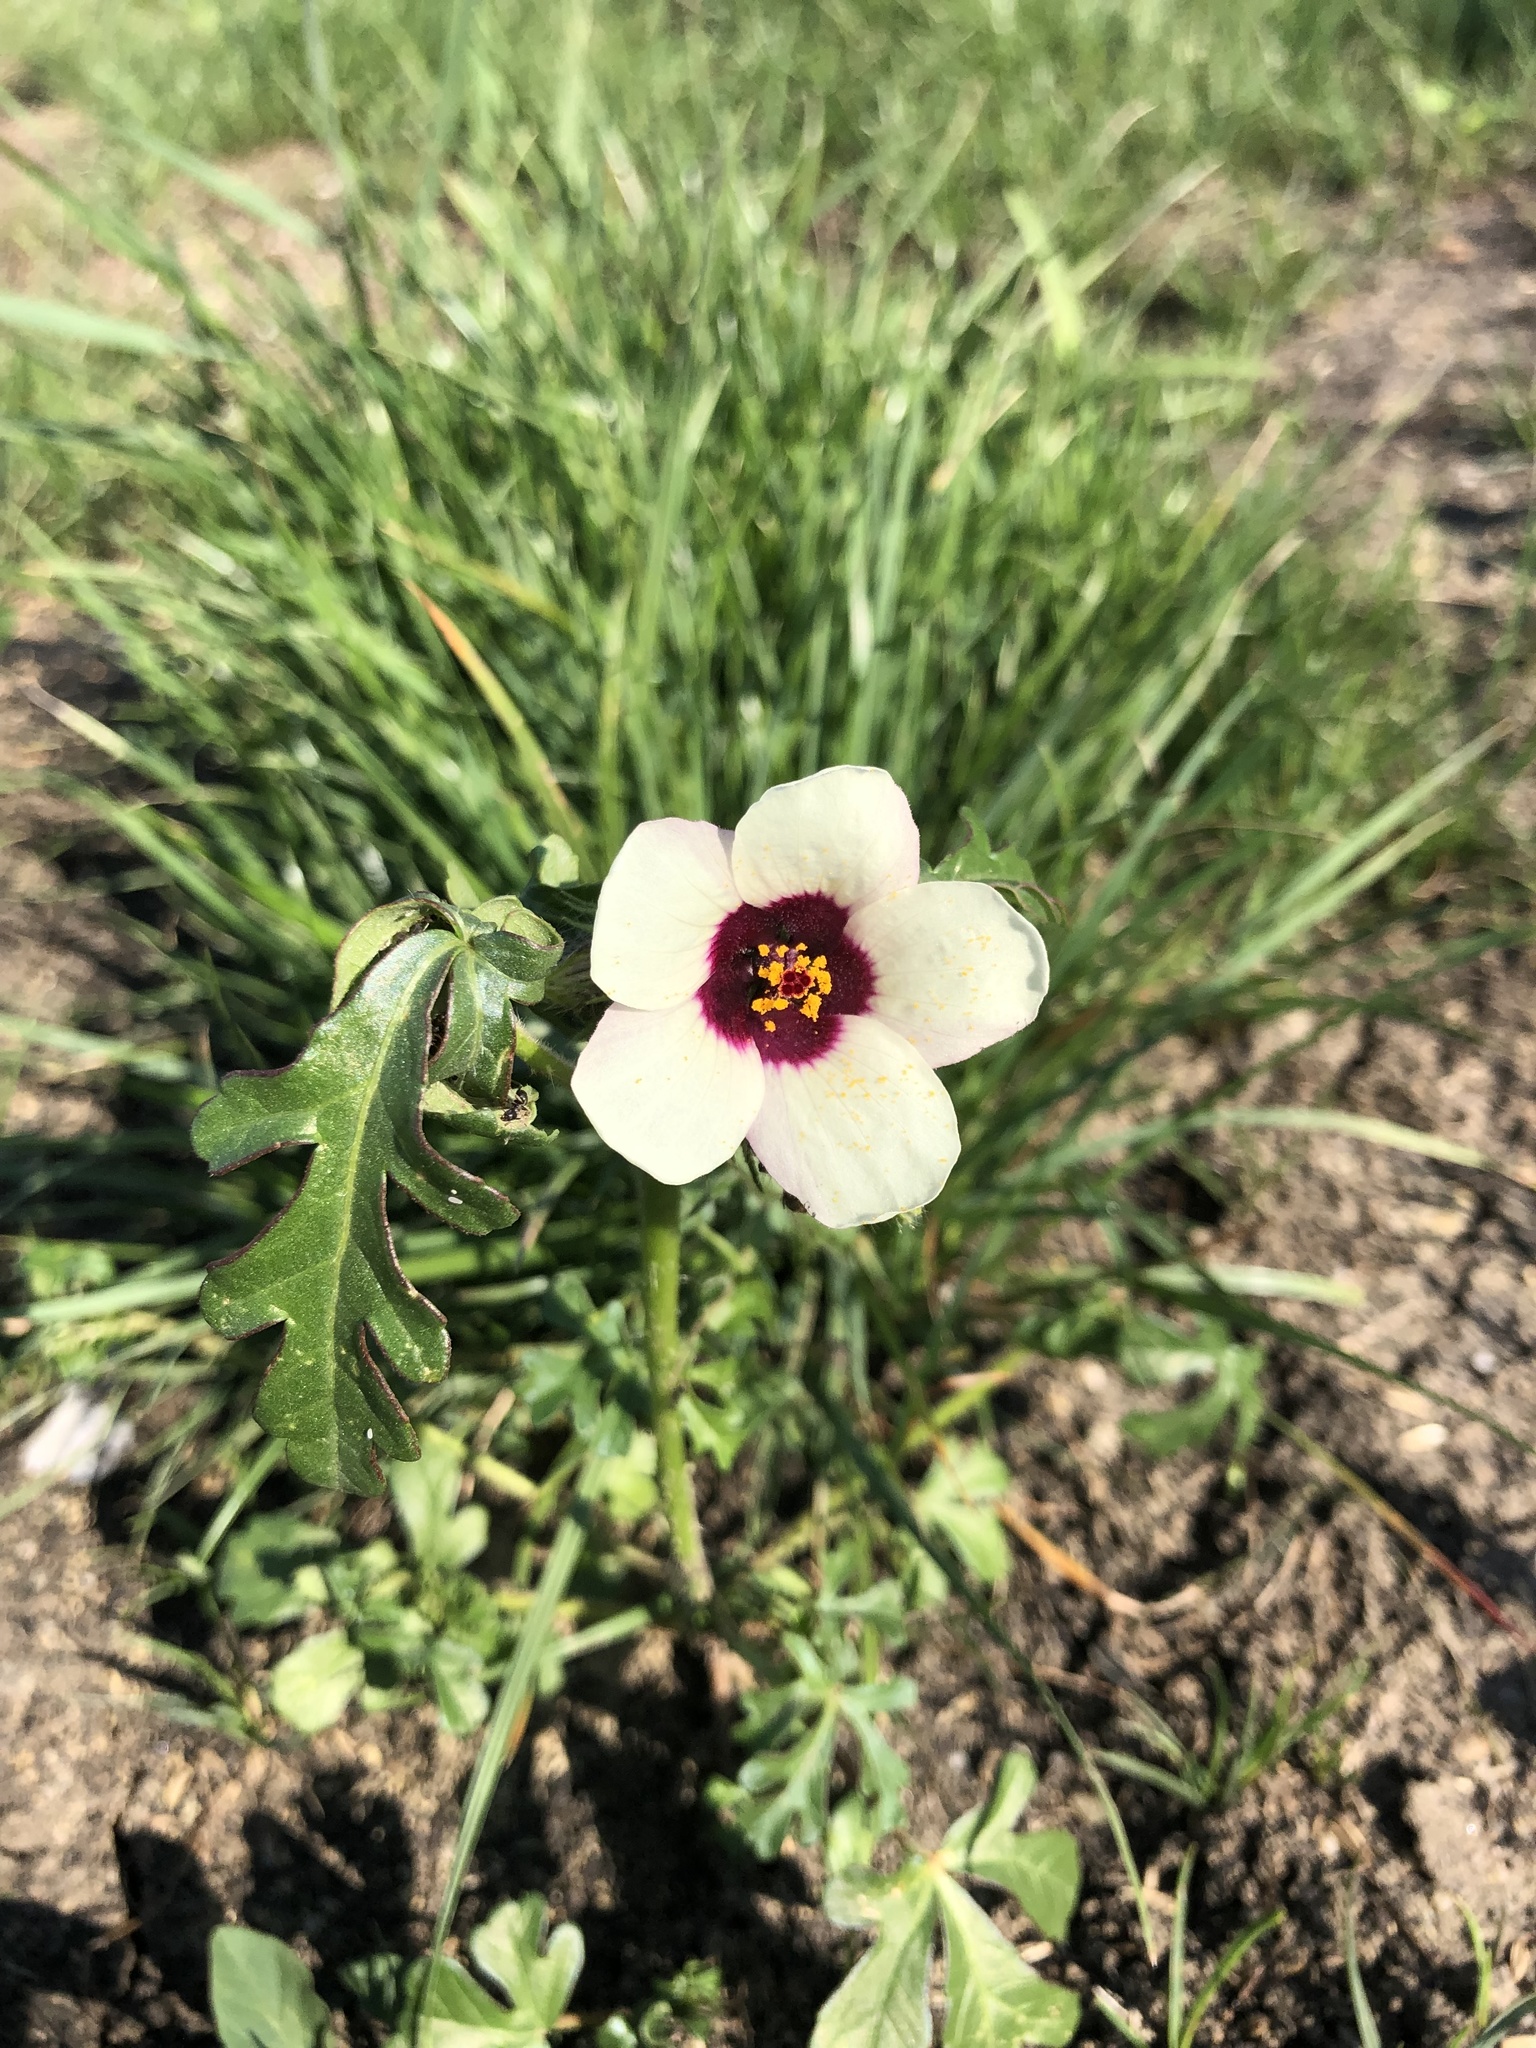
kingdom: Plantae
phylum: Tracheophyta
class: Magnoliopsida
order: Malvales
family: Malvaceae
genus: Hibiscus
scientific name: Hibiscus trionum
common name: Bladder ketmia
